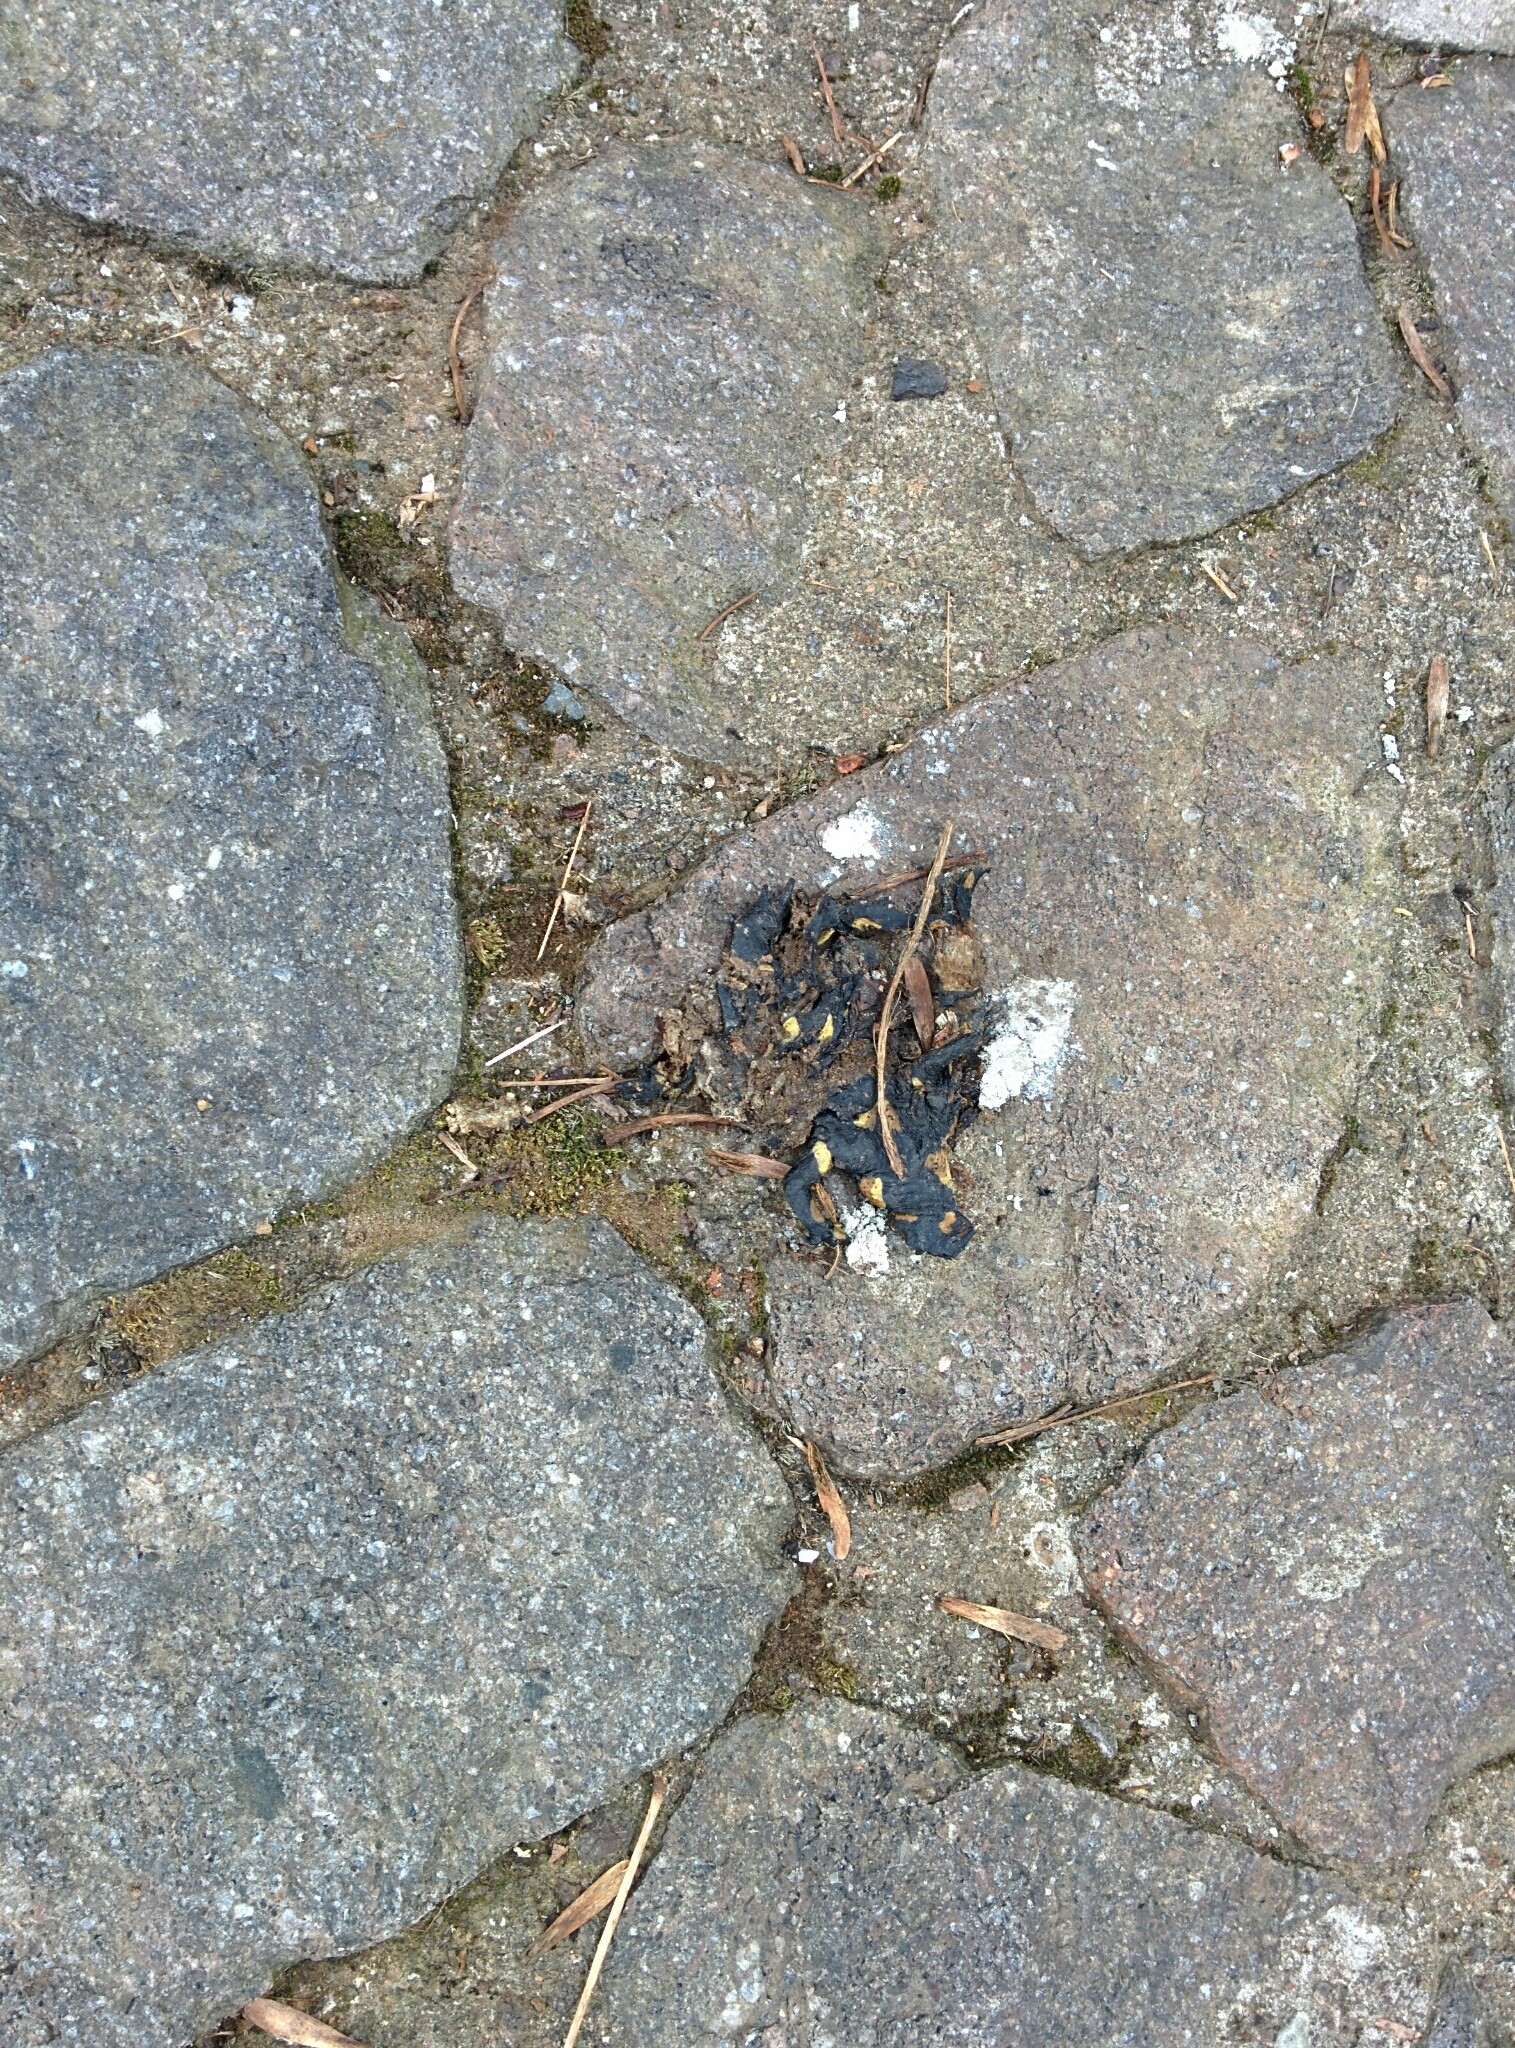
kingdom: Animalia
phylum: Chordata
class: Amphibia
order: Caudata
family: Salamandridae
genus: Salamandra
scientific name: Salamandra salamandra
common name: Fire salamander
